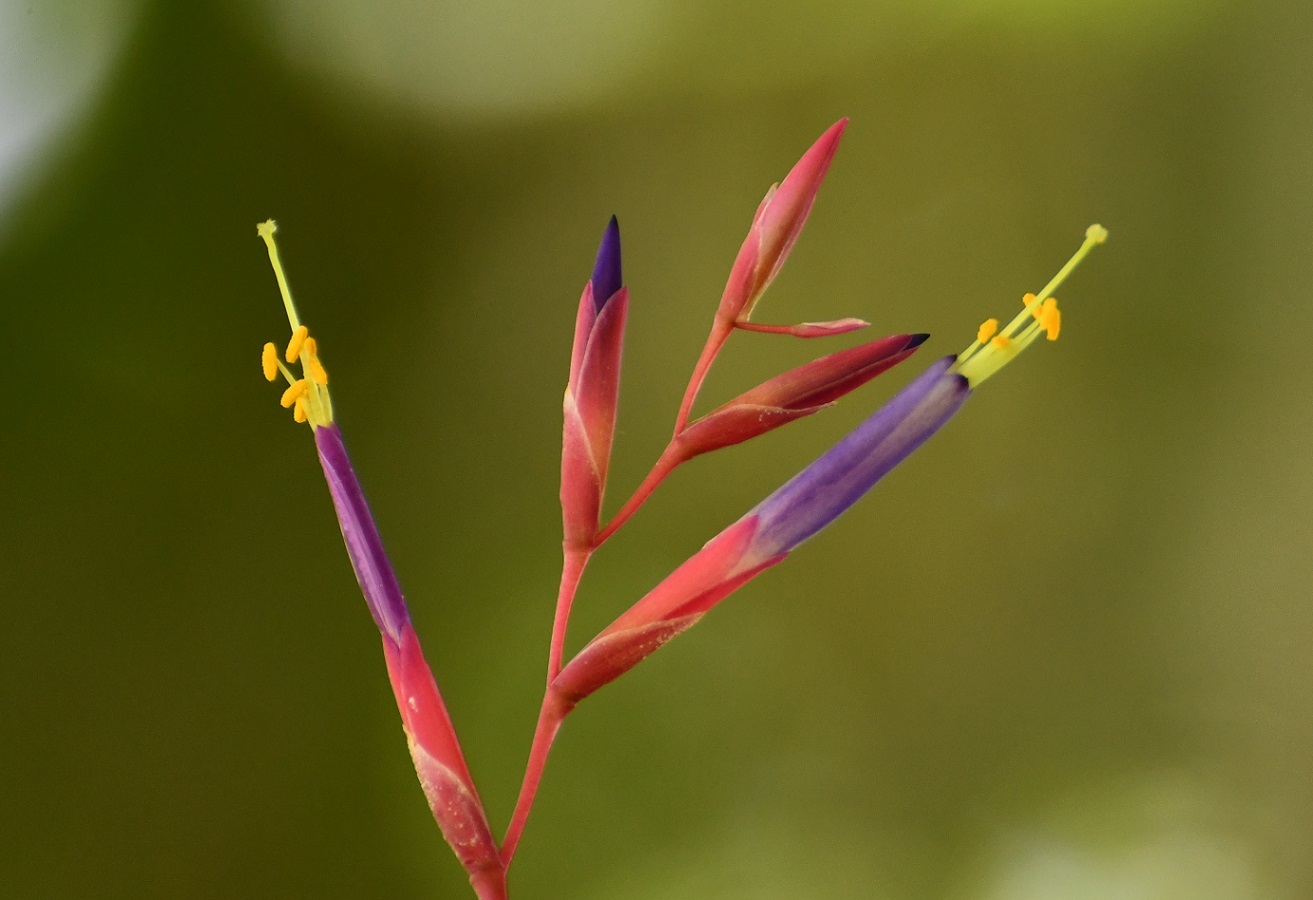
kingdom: Plantae
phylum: Tracheophyta
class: Liliopsida
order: Poales
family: Bromeliaceae
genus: Tillandsia
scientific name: Tillandsia fuchsii
